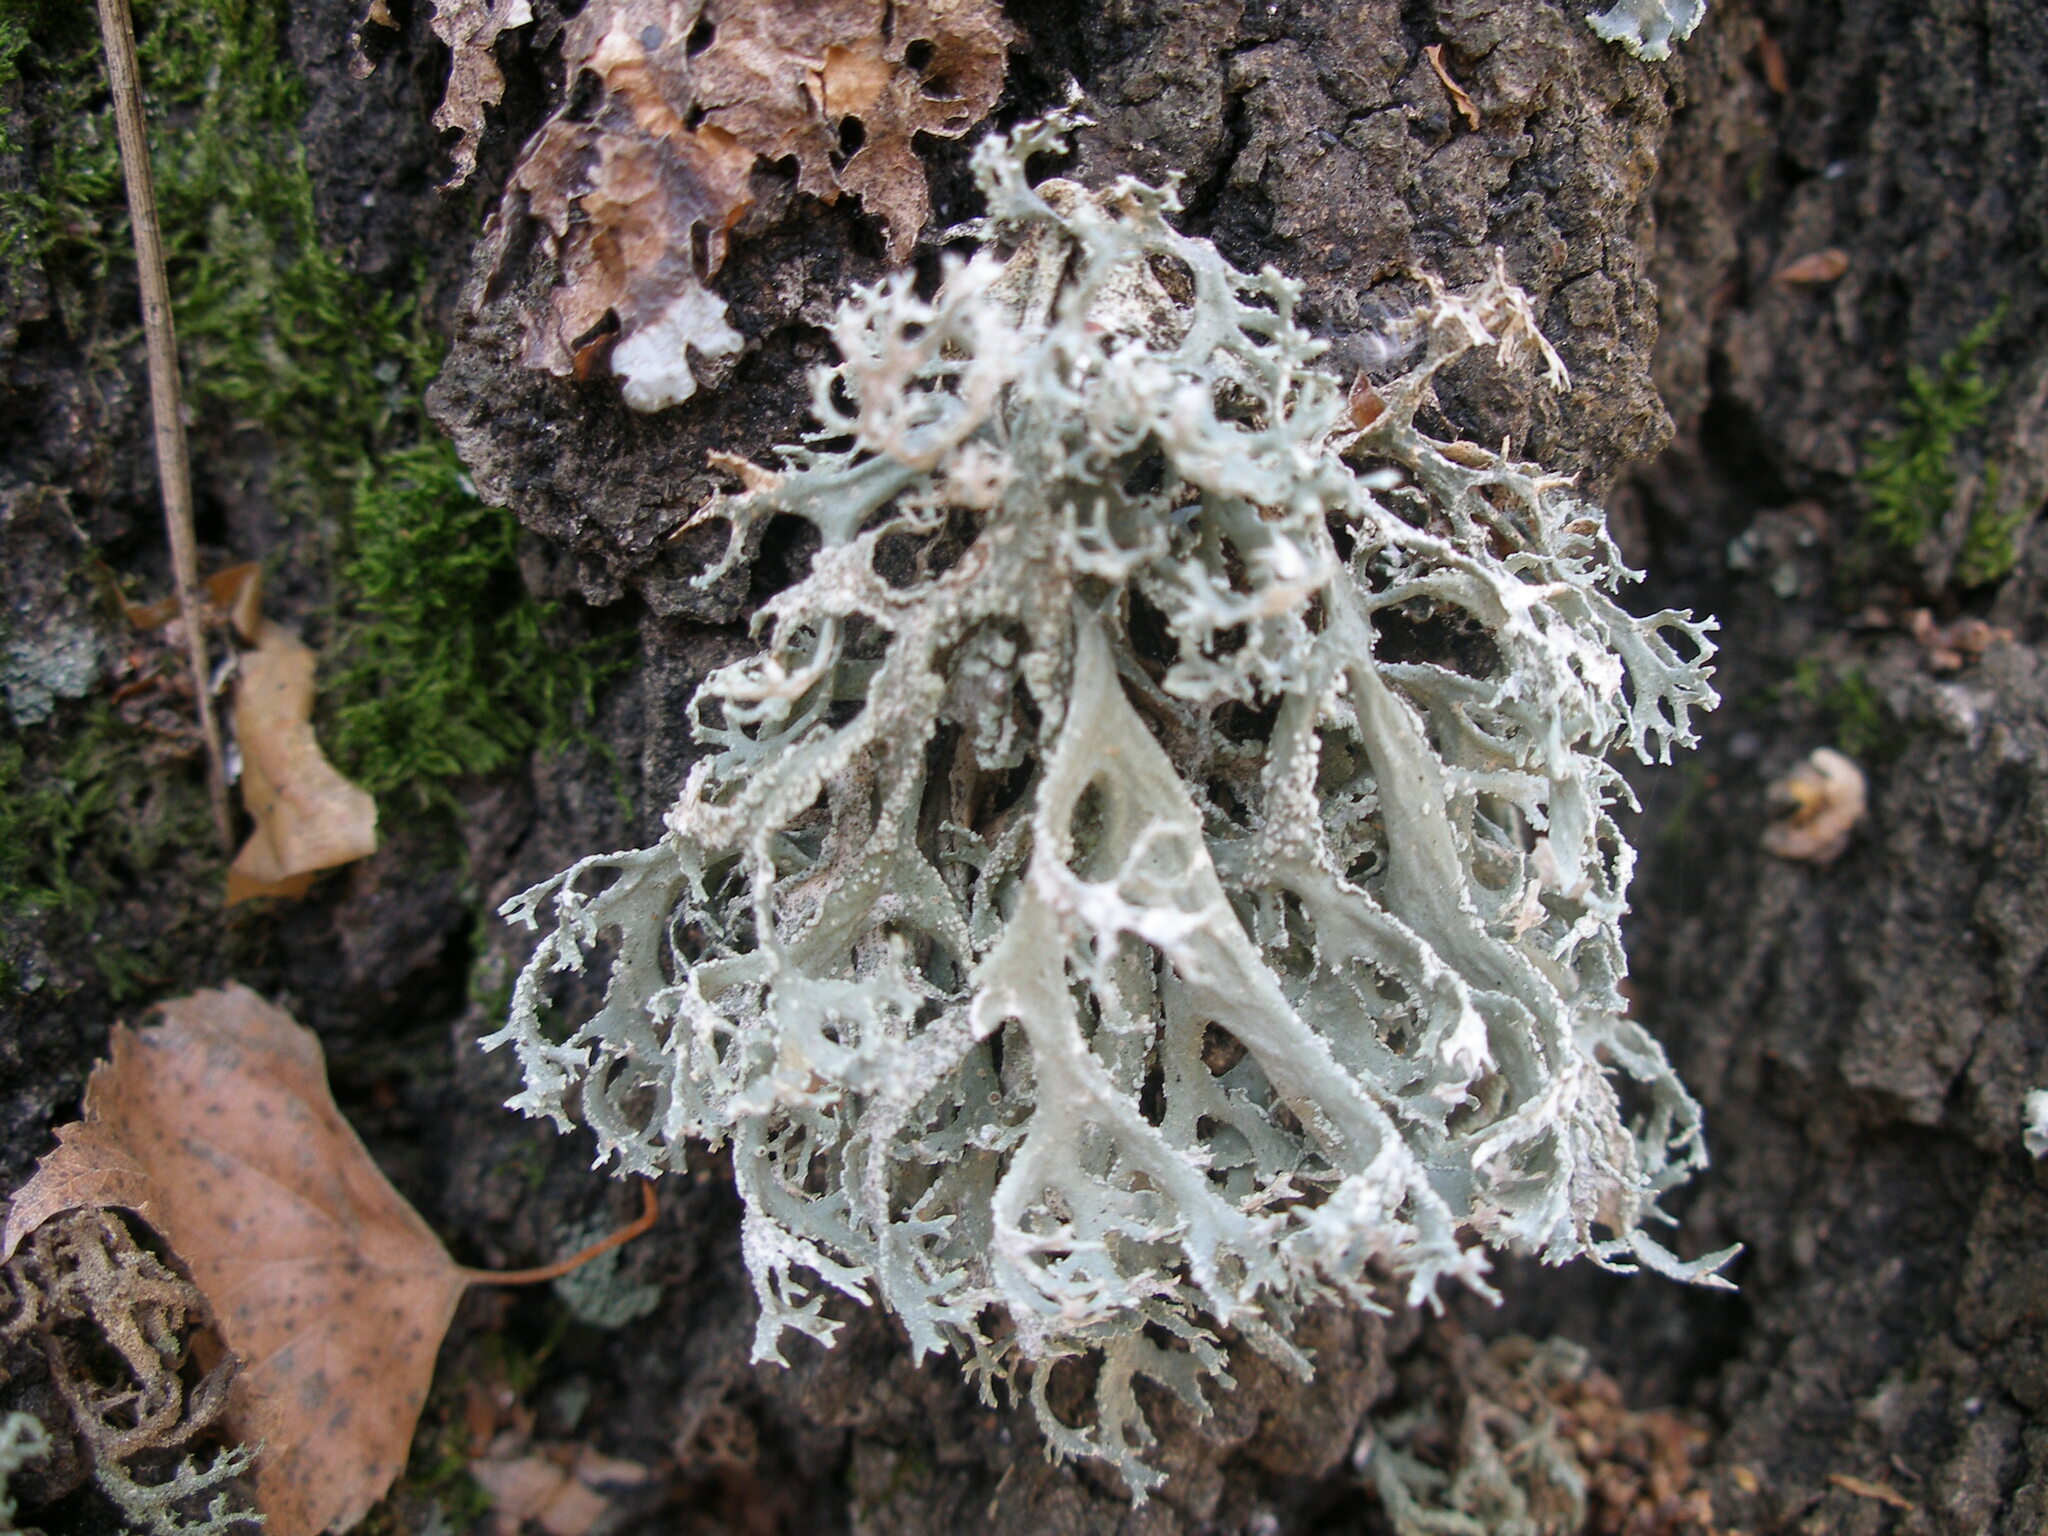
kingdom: Fungi
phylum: Ascomycota
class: Lecanoromycetes
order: Lecanorales
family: Parmeliaceae
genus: Evernia
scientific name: Evernia prunastri
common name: Oak moss
